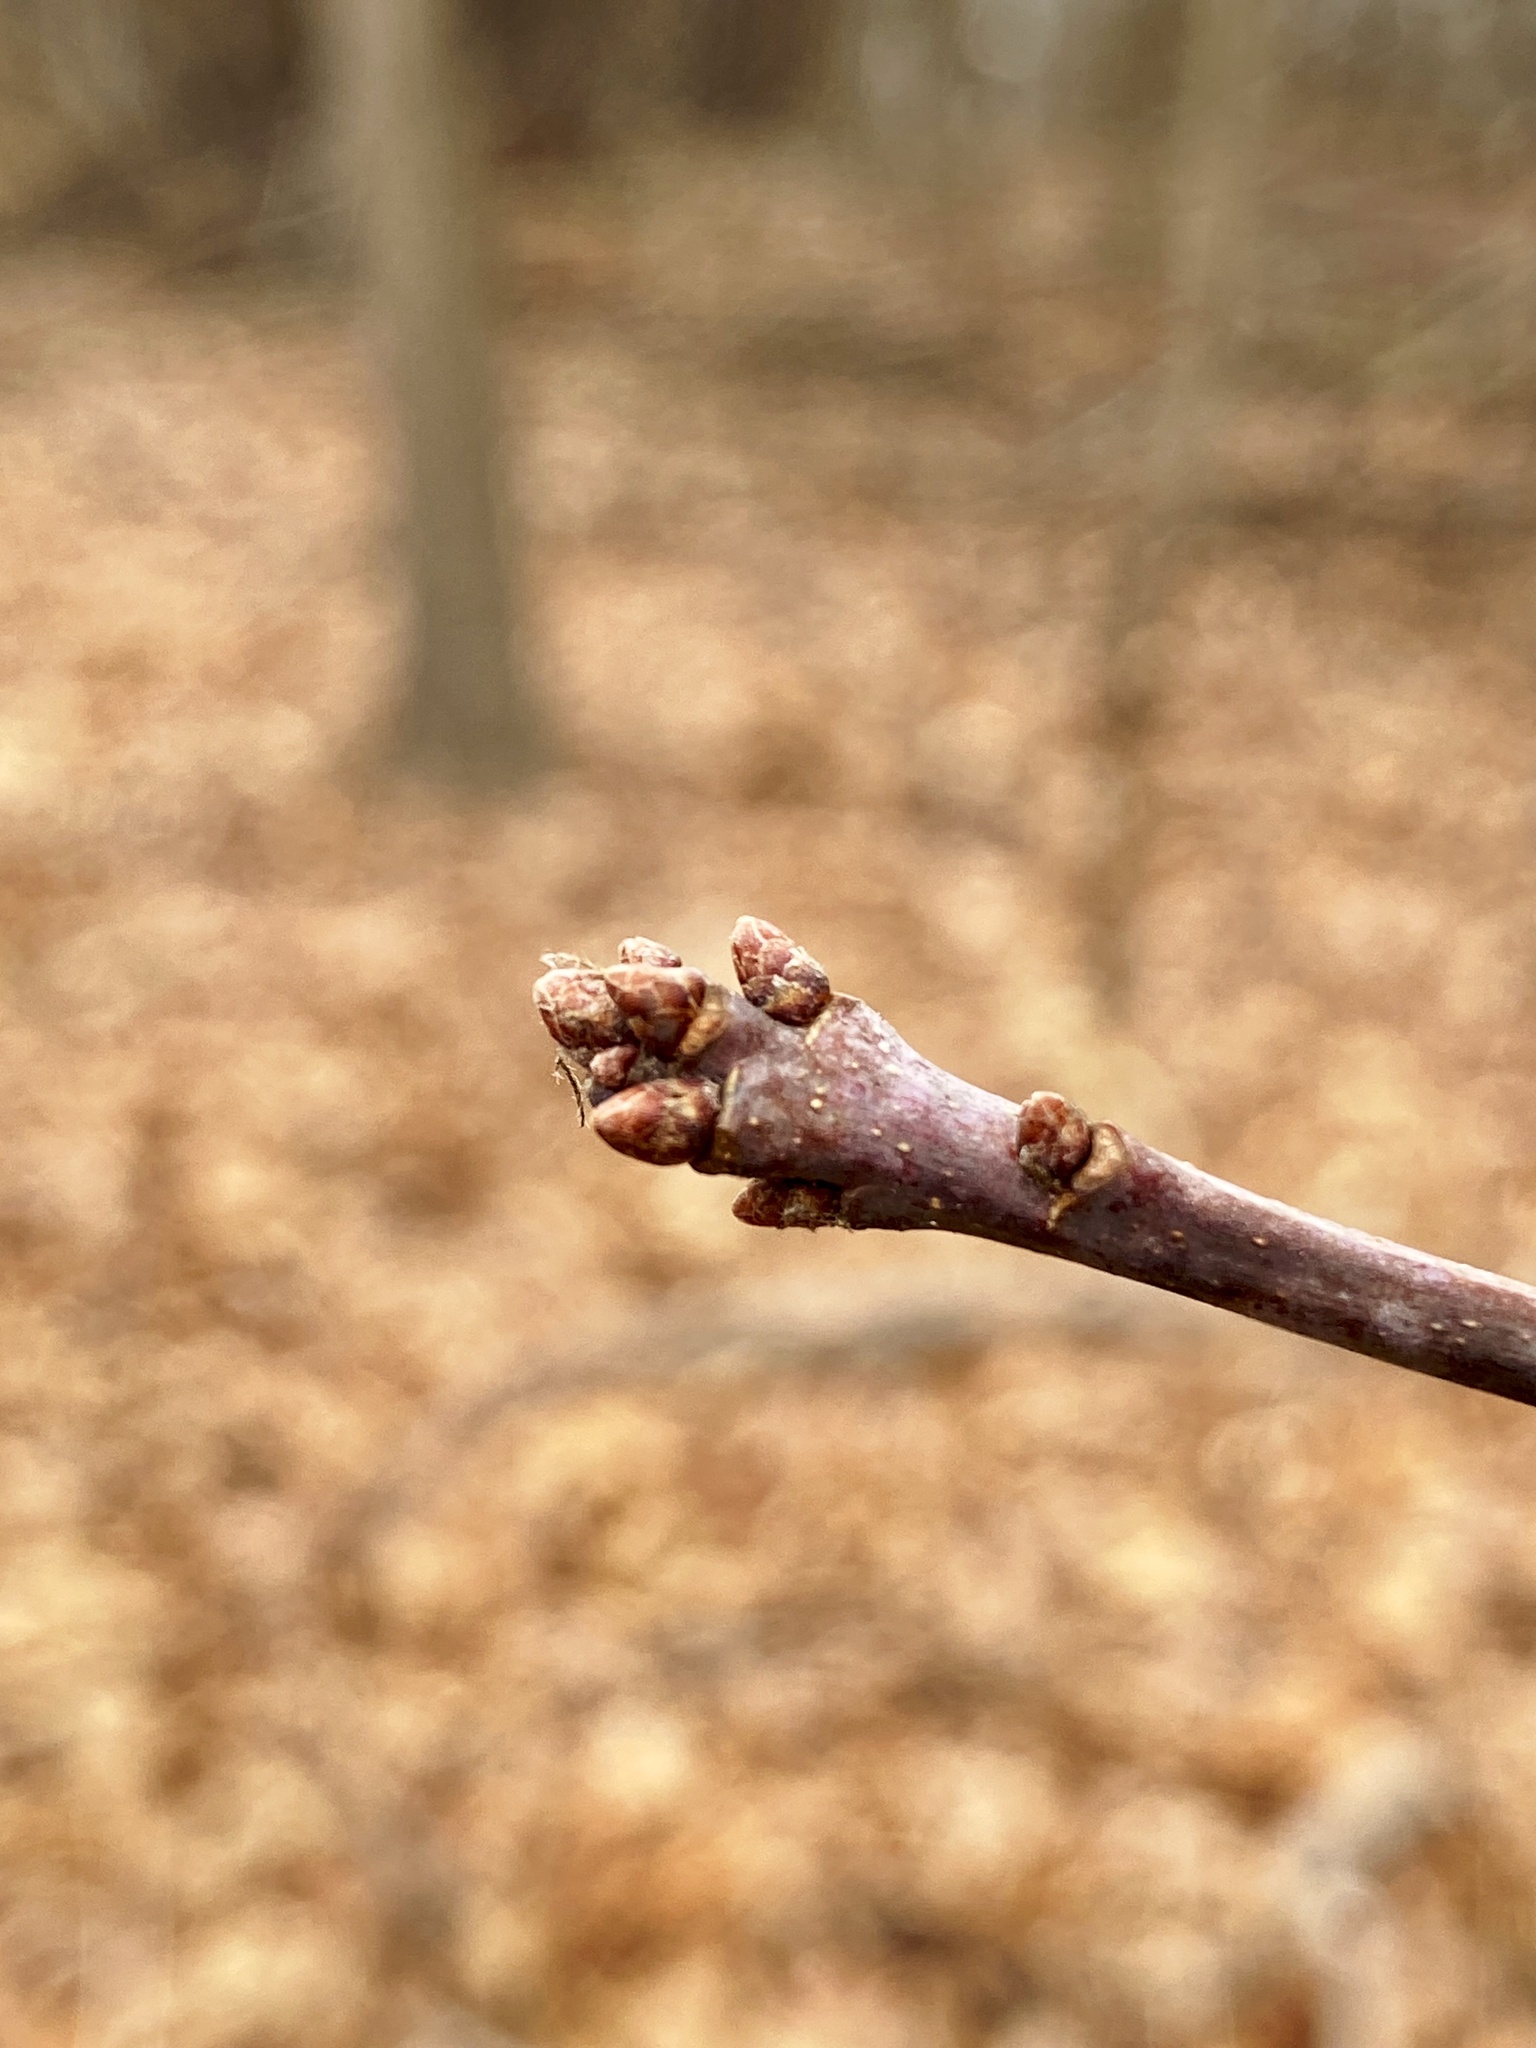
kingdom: Plantae
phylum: Tracheophyta
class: Magnoliopsida
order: Fagales
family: Fagaceae
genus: Quercus
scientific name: Quercus alba
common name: White oak
